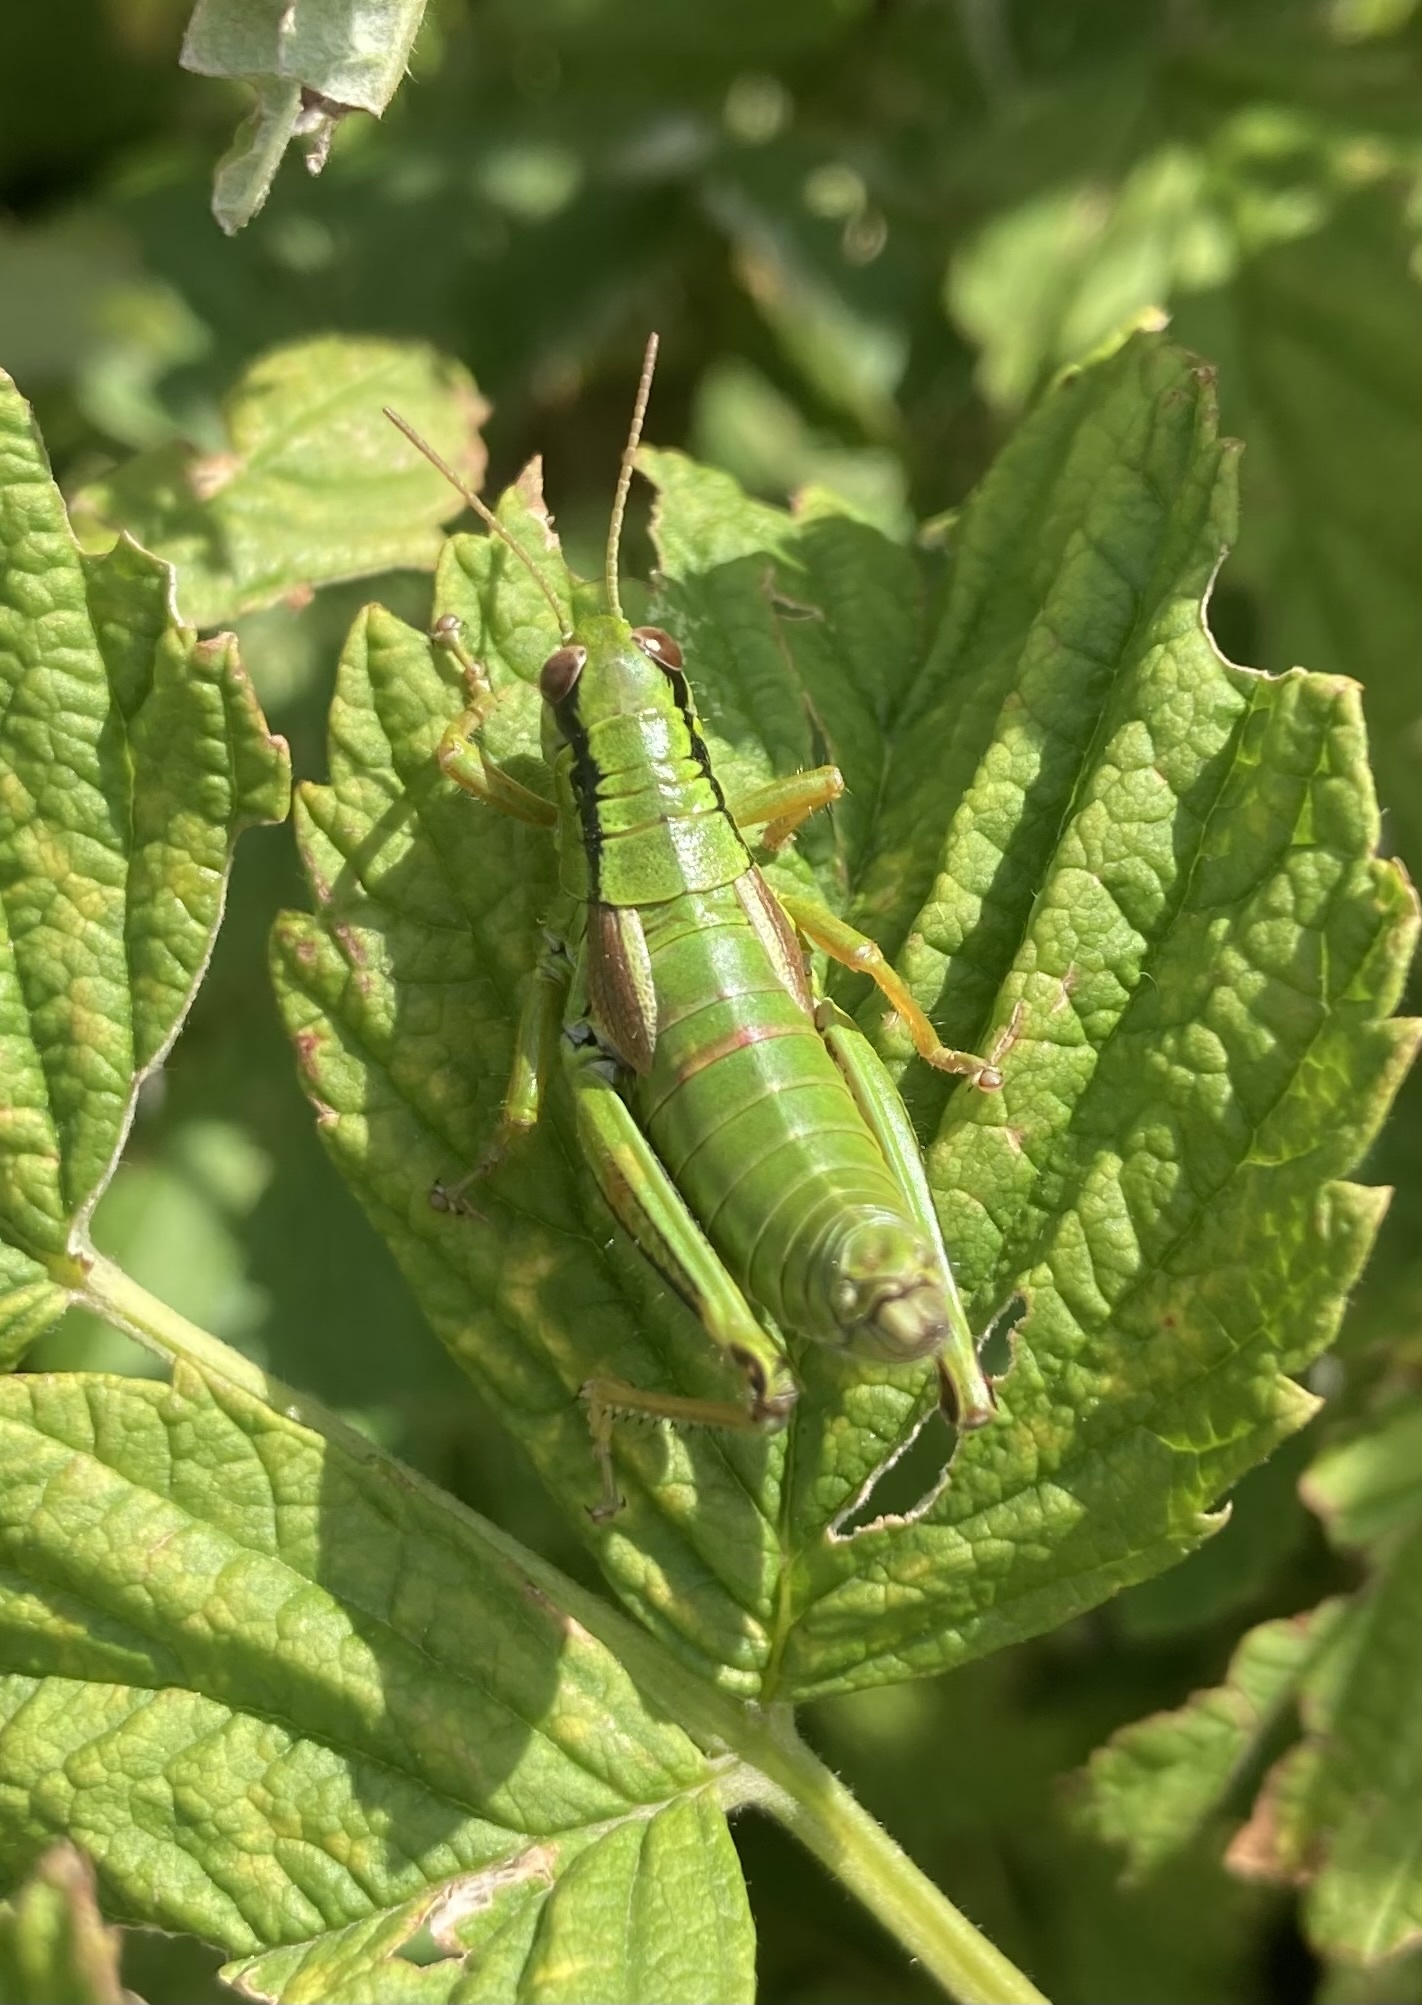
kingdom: Animalia
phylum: Arthropoda
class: Insecta
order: Orthoptera
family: Acrididae
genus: Miramella
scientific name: Miramella alpina
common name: Green mountain grasshopper
